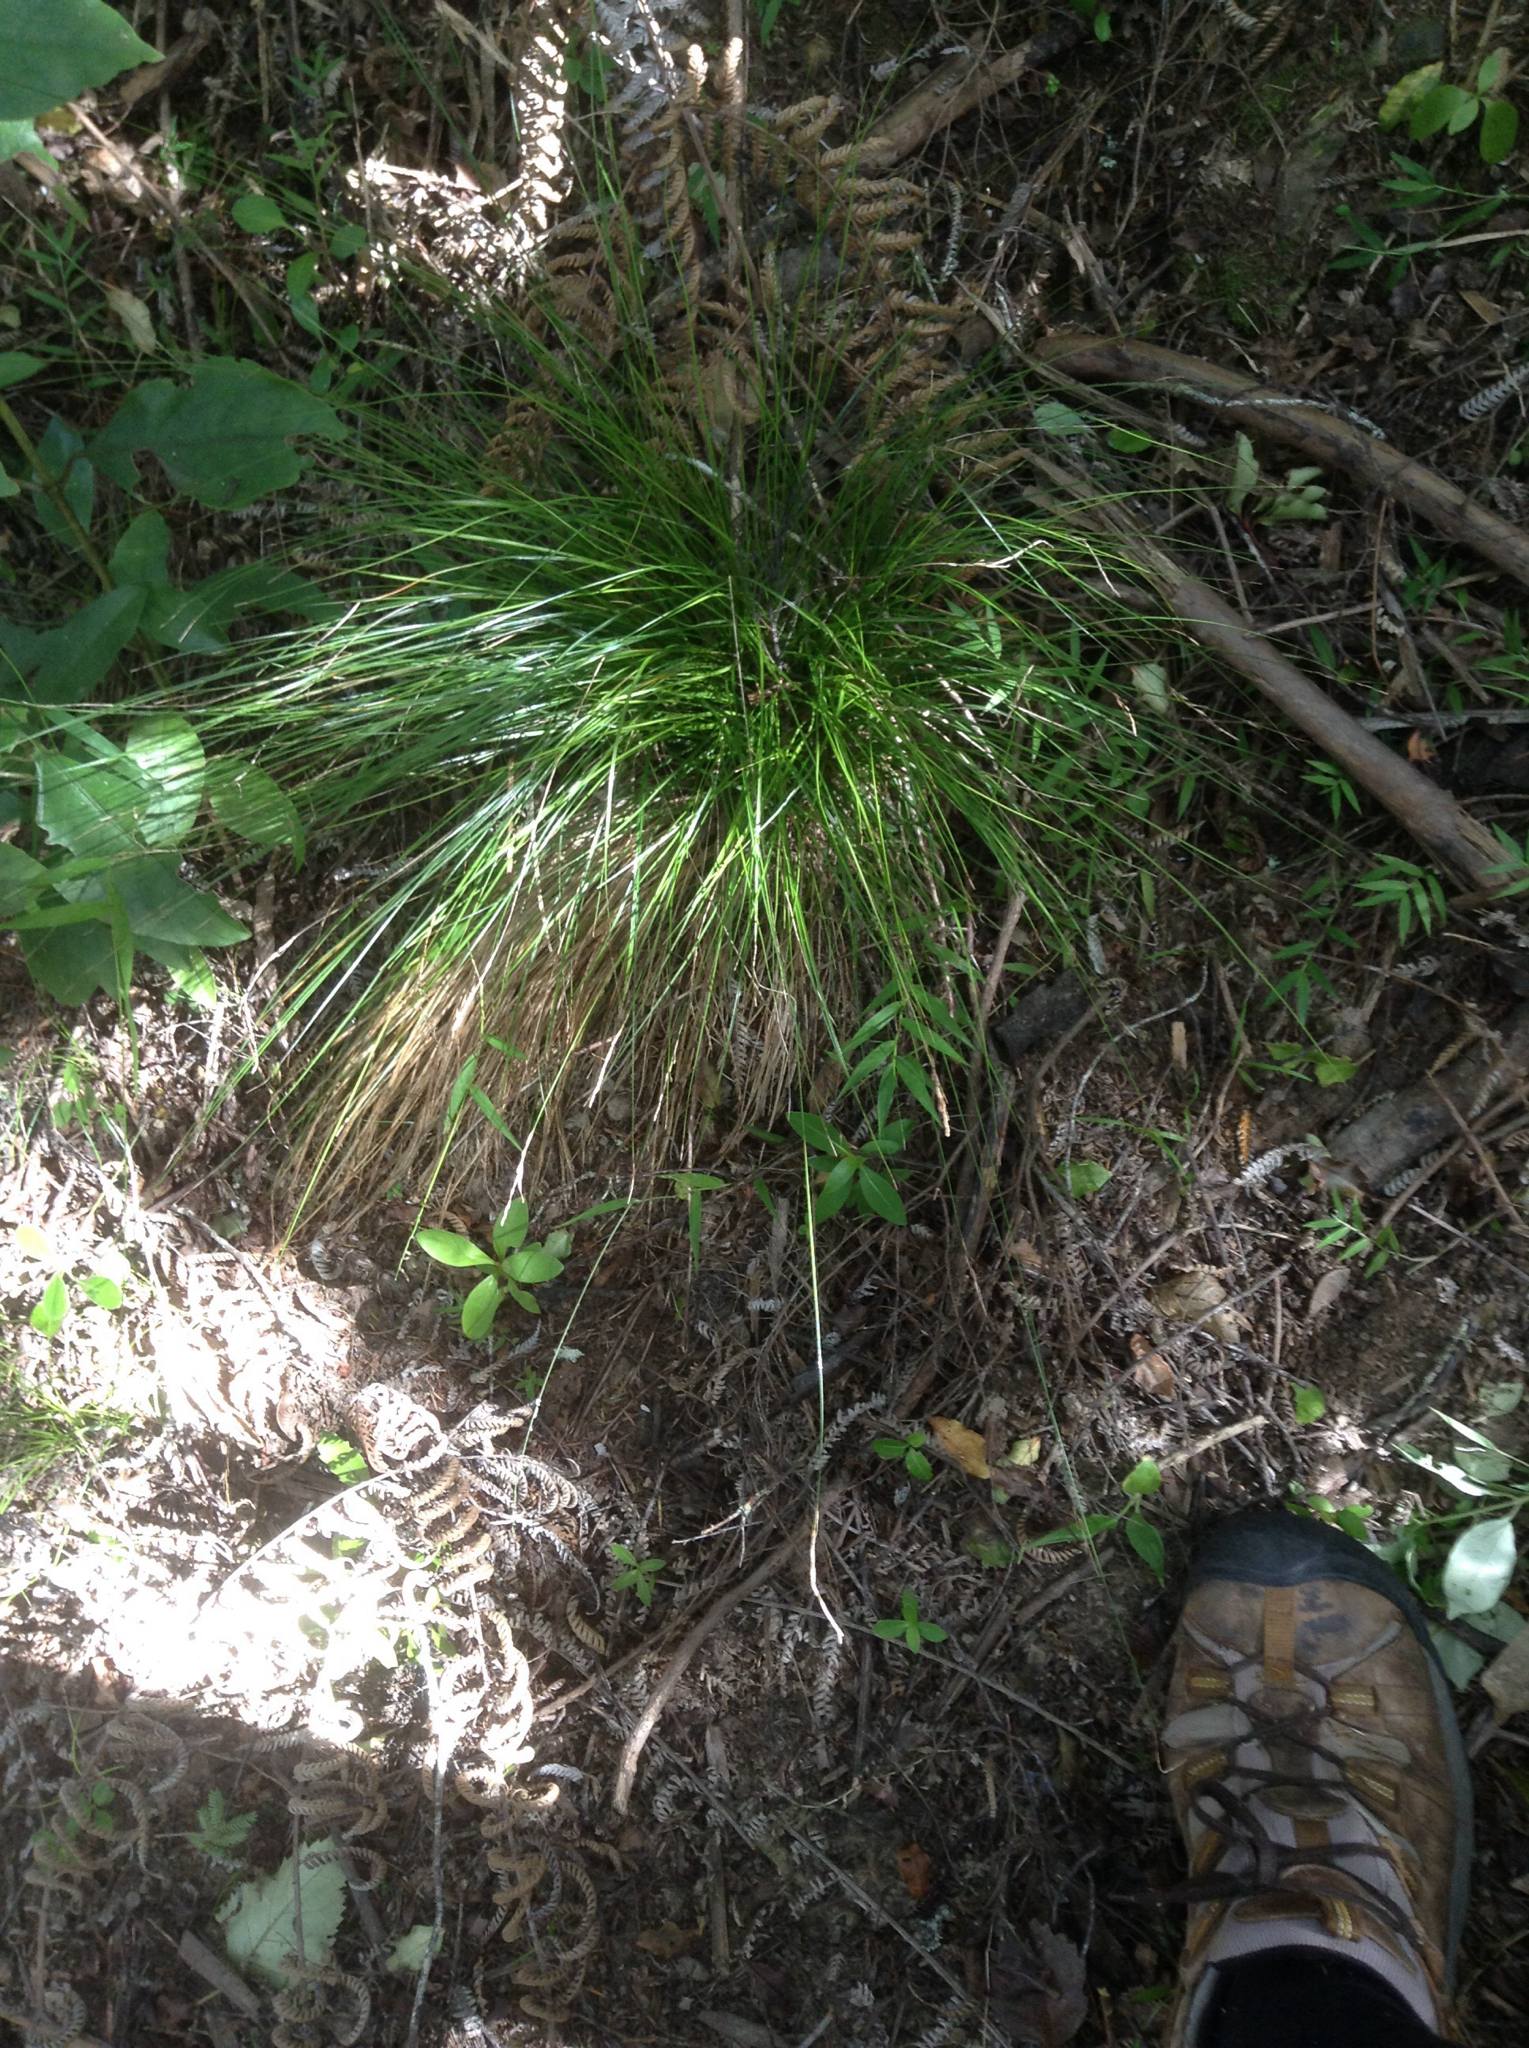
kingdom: Plantae
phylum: Tracheophyta
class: Liliopsida
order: Poales
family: Cyperaceae
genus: Carex
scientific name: Carex banksiana
